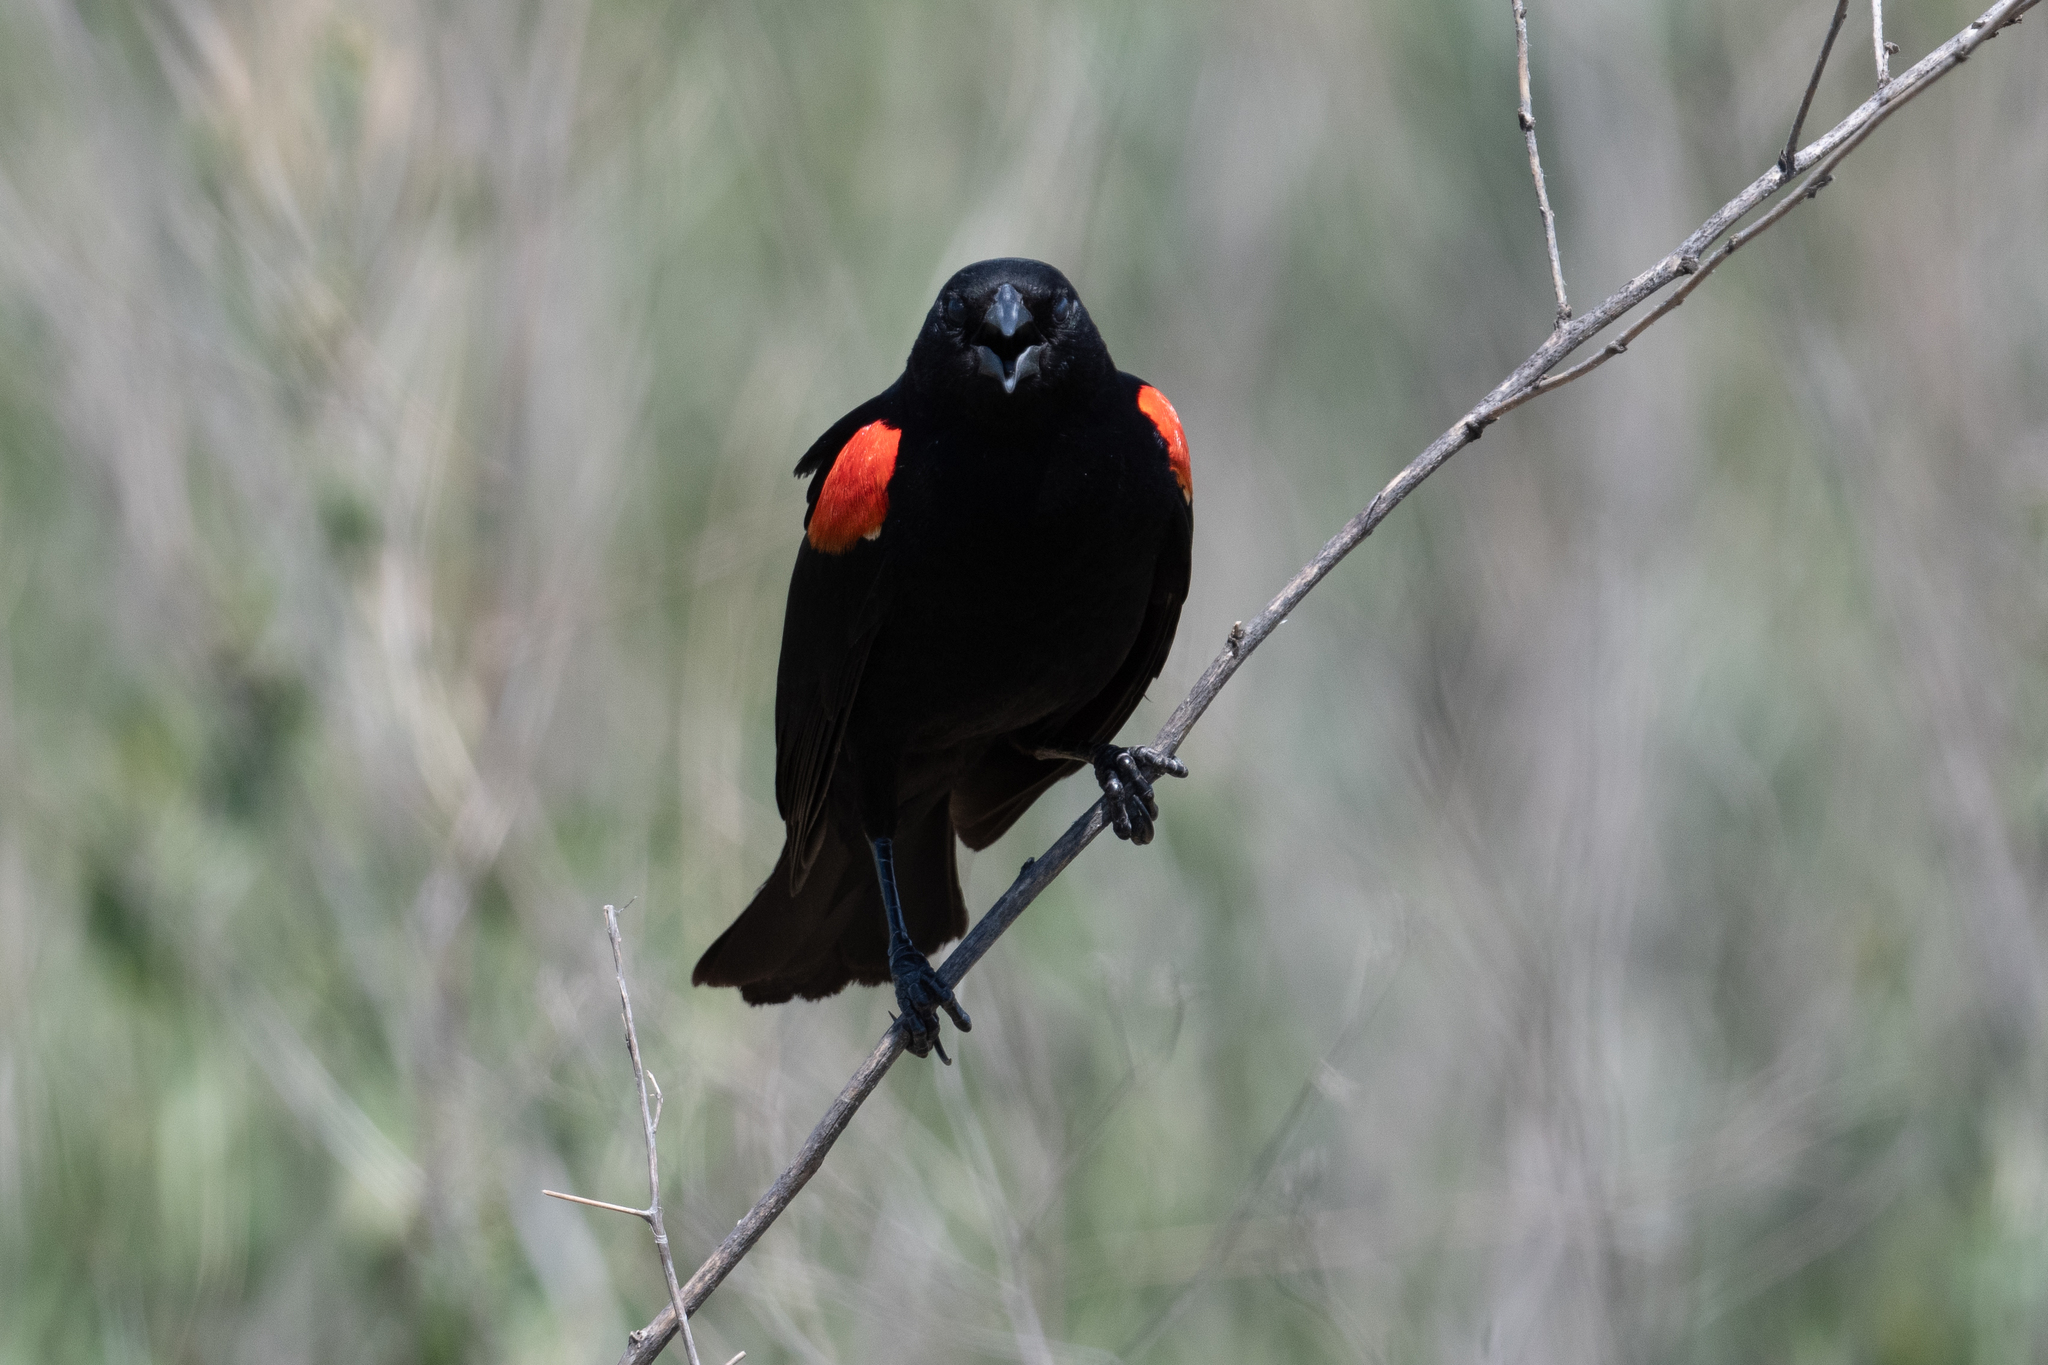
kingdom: Animalia
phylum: Chordata
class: Aves
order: Passeriformes
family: Icteridae
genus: Agelaius
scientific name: Agelaius phoeniceus
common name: Red-winged blackbird
